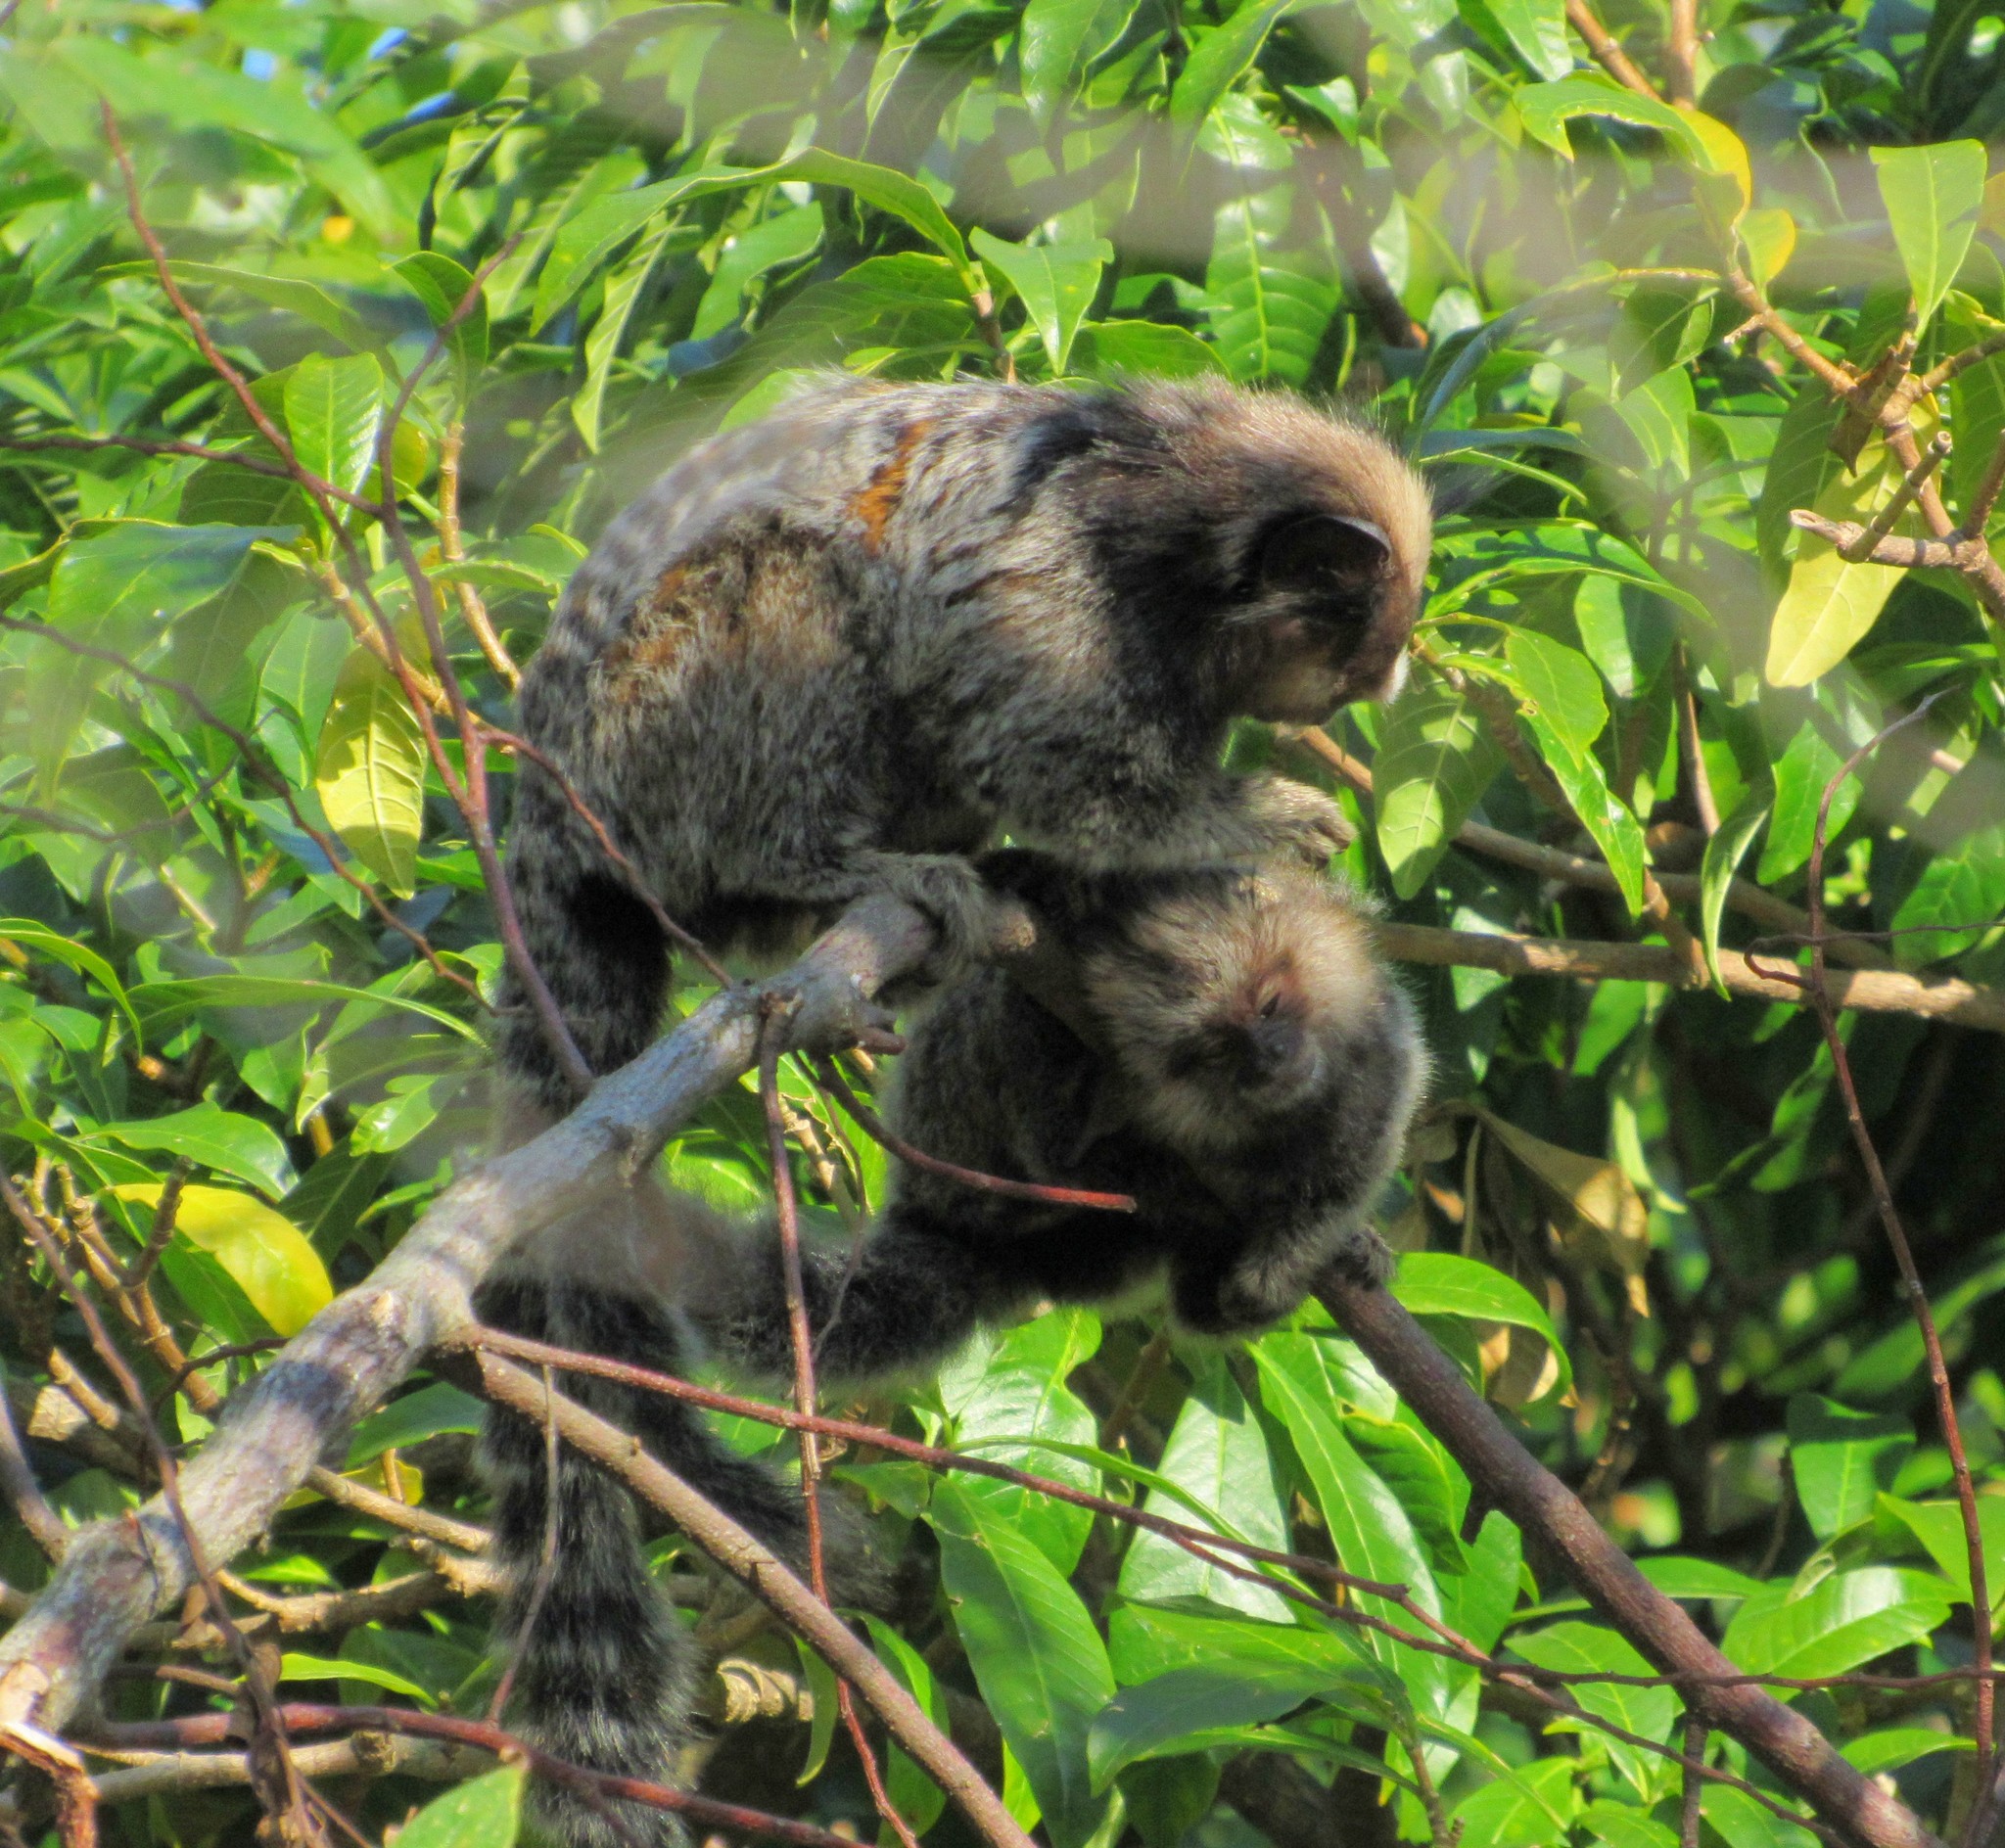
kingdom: Animalia
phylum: Chordata
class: Mammalia
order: Primates
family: Callitrichidae
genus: Callithrix
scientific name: Callithrix penicillata
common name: Black-tufted marmoset
